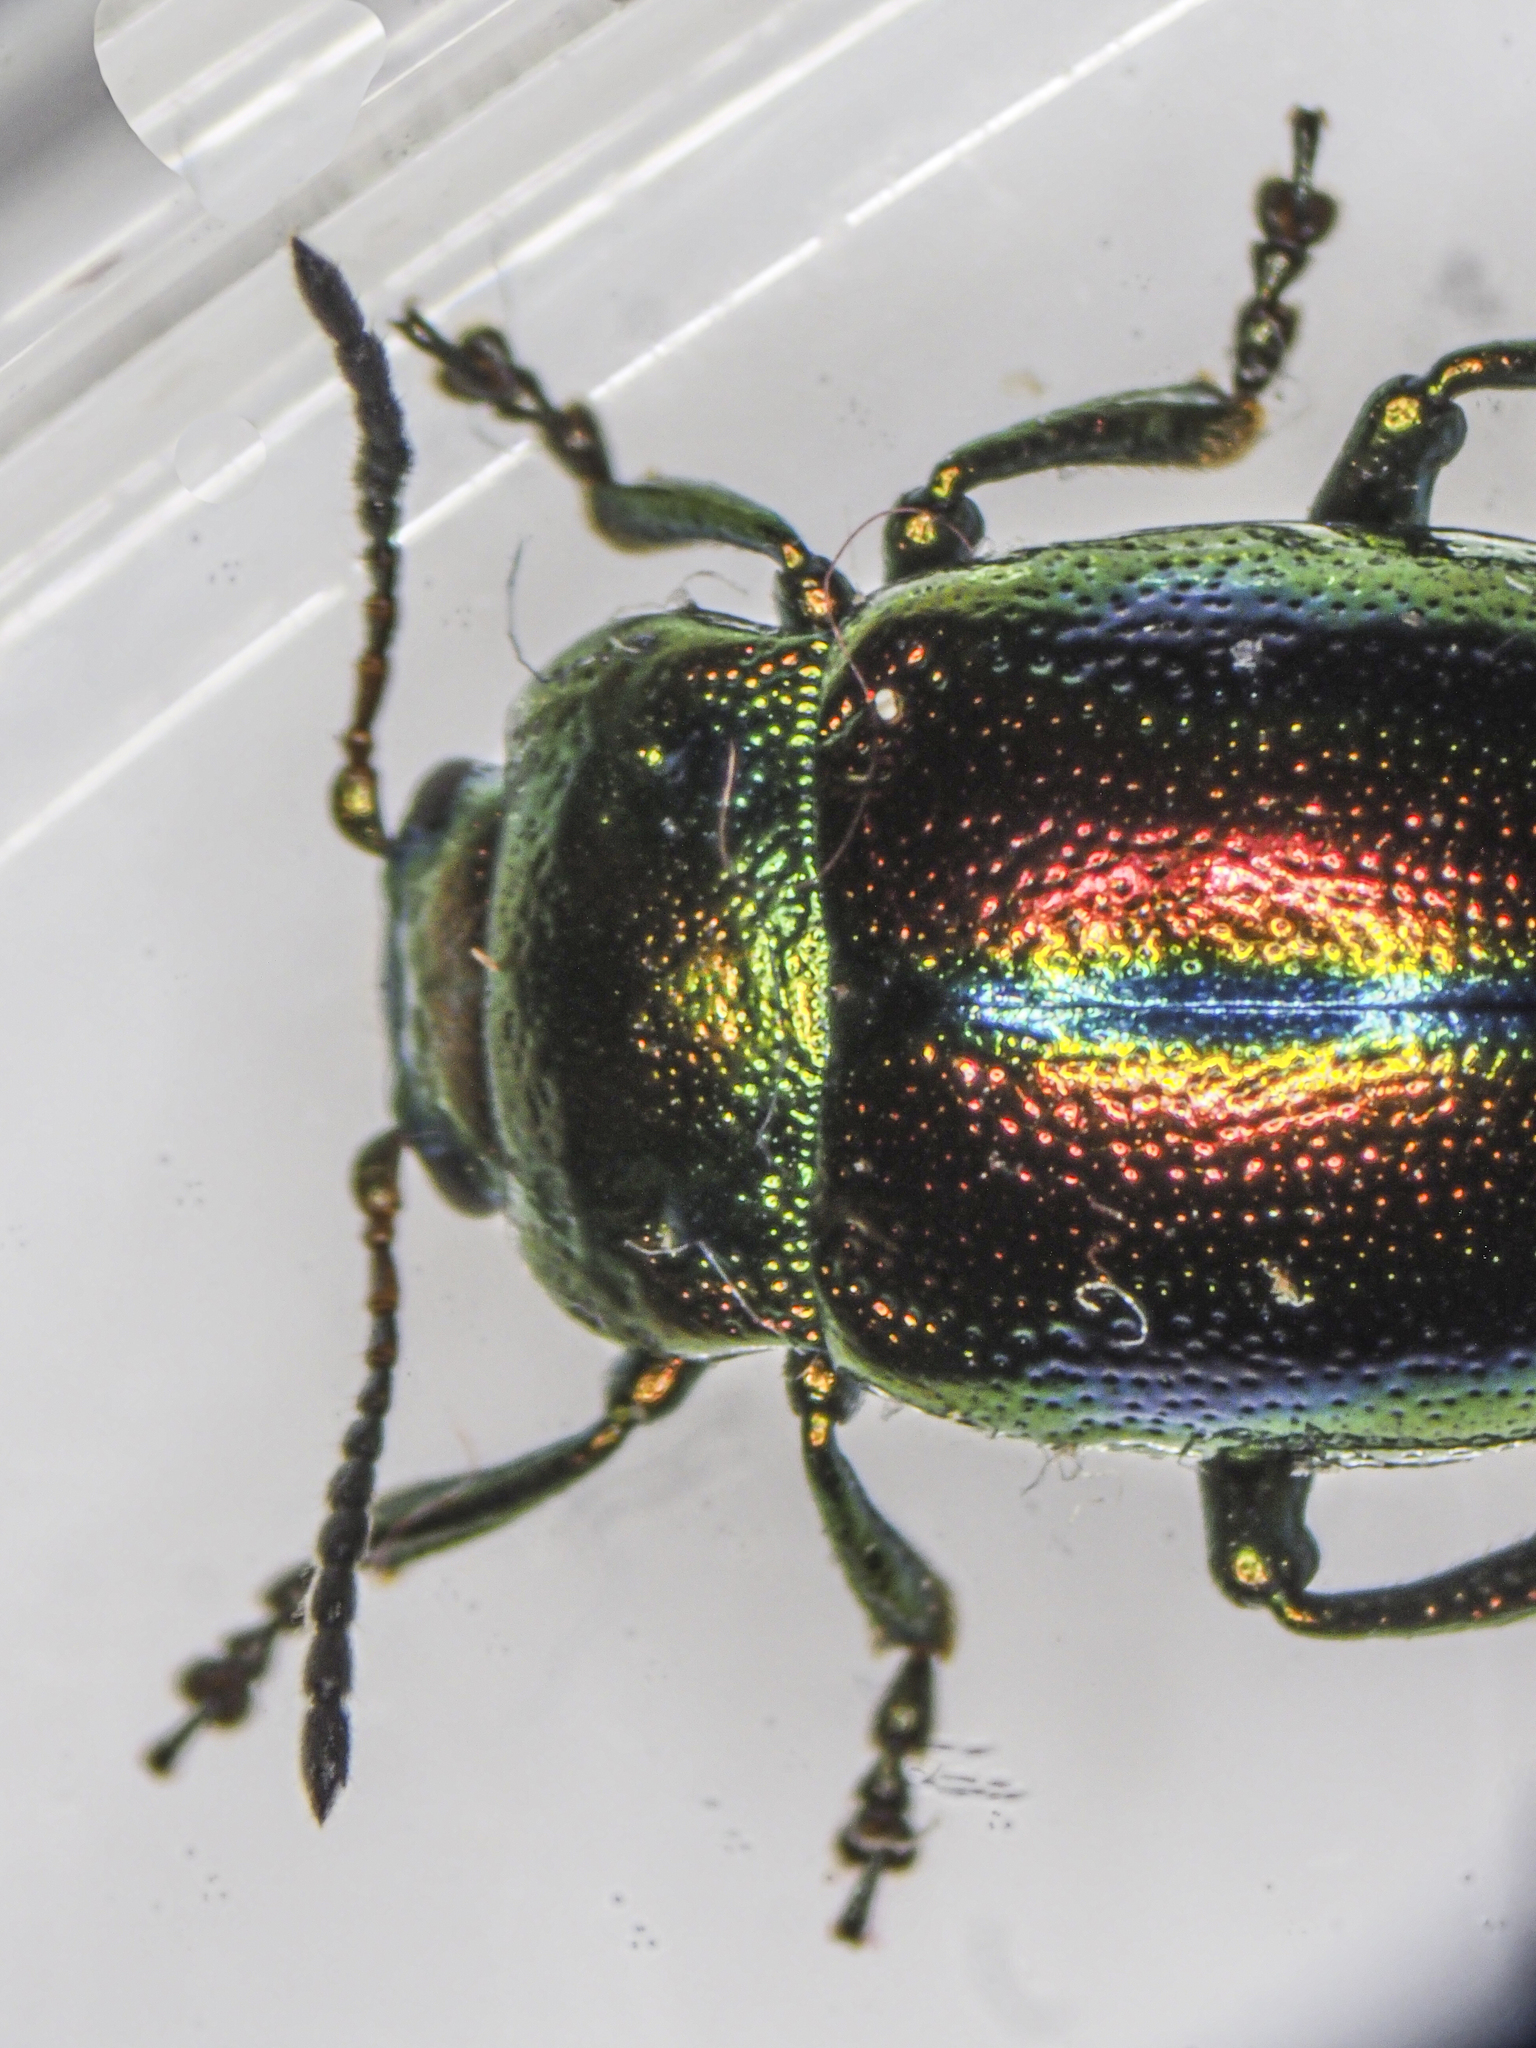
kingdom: Animalia
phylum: Arthropoda
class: Insecta
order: Coleoptera
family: Chrysomelidae
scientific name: Chrysomelidae
